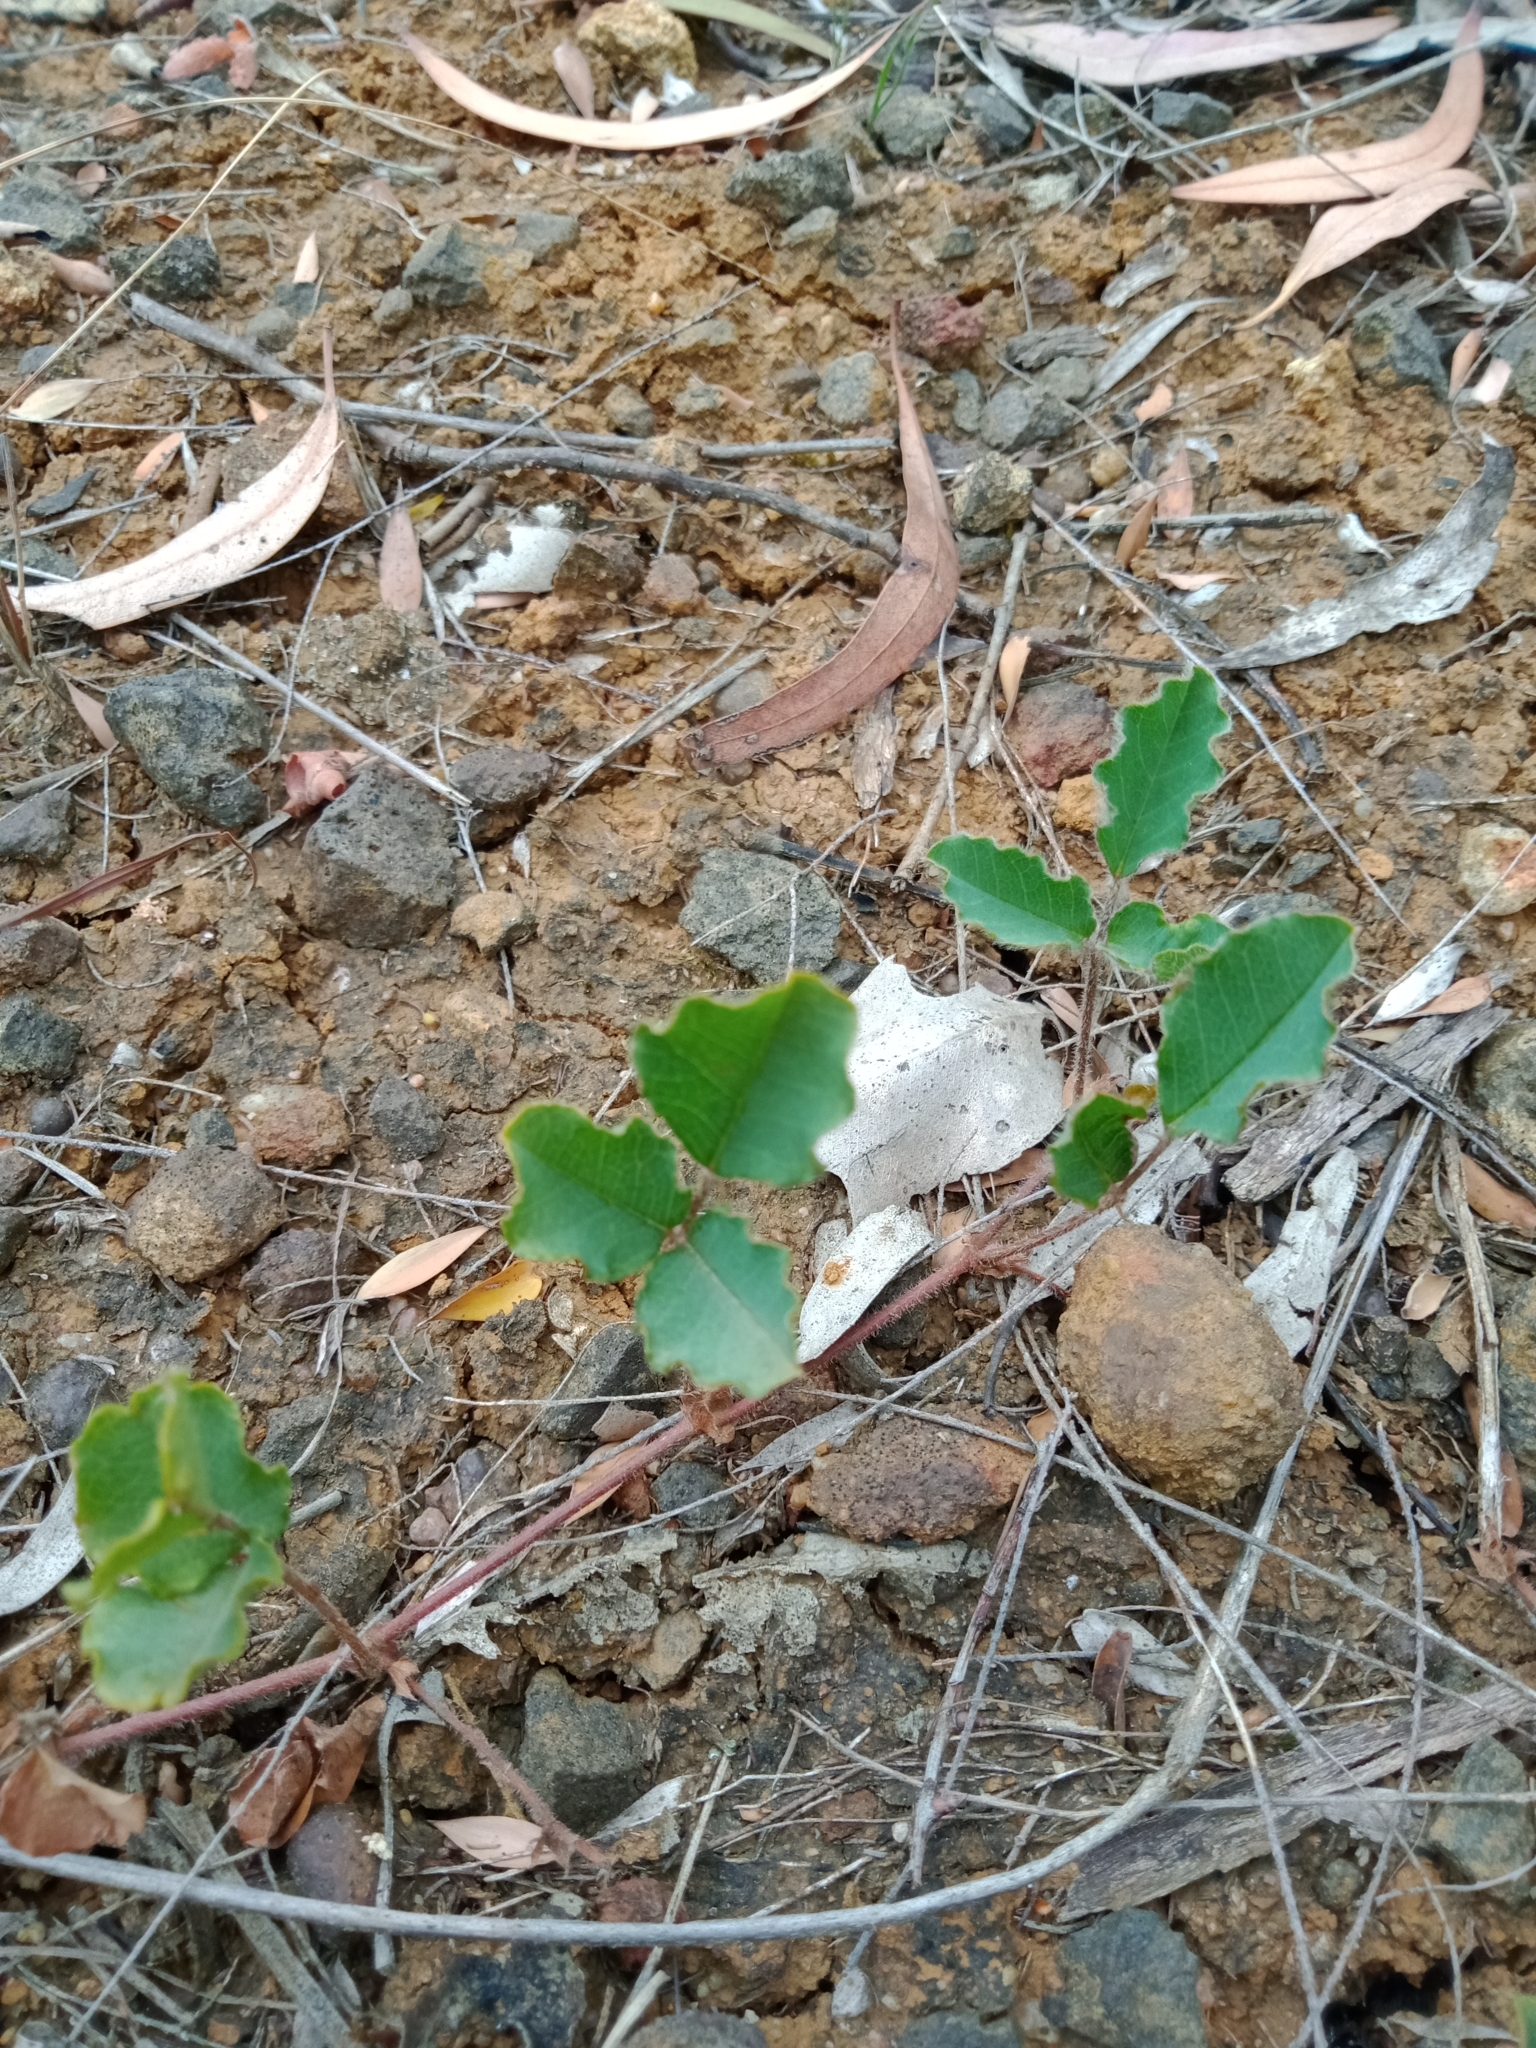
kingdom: Plantae
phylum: Tracheophyta
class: Magnoliopsida
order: Fabales
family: Fabaceae
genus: Kennedia
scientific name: Kennedia prostrata
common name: Running-postman
